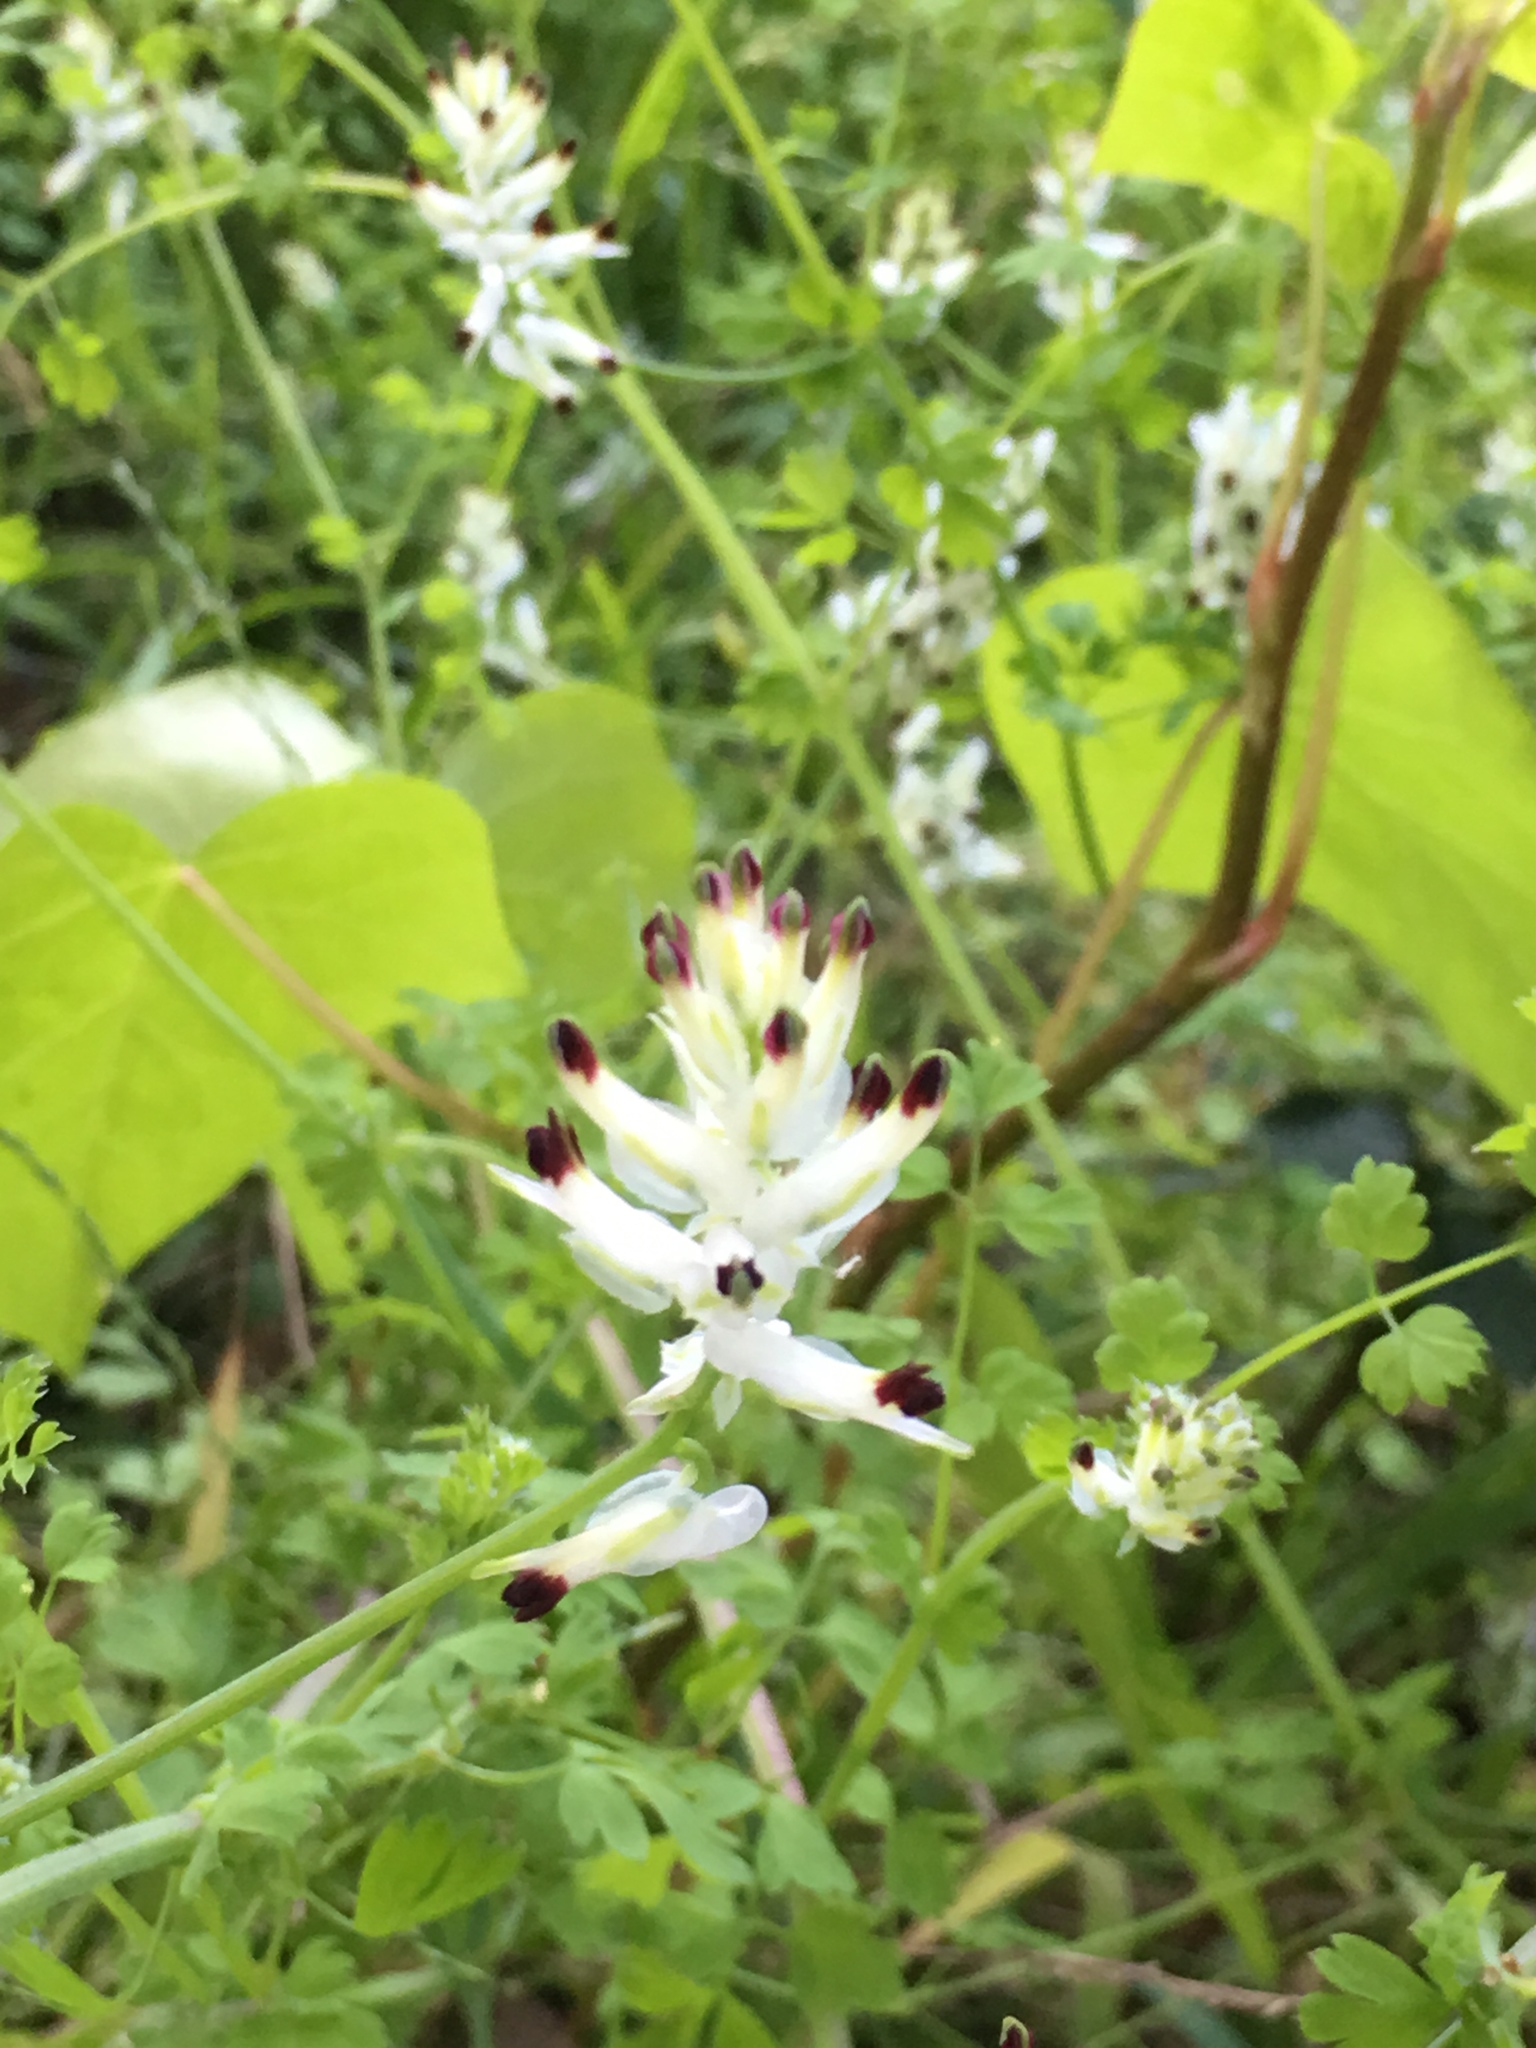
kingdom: Plantae
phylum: Tracheophyta
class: Magnoliopsida
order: Ranunculales
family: Papaveraceae
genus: Fumaria
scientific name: Fumaria capreolata
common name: White ramping-fumitory
